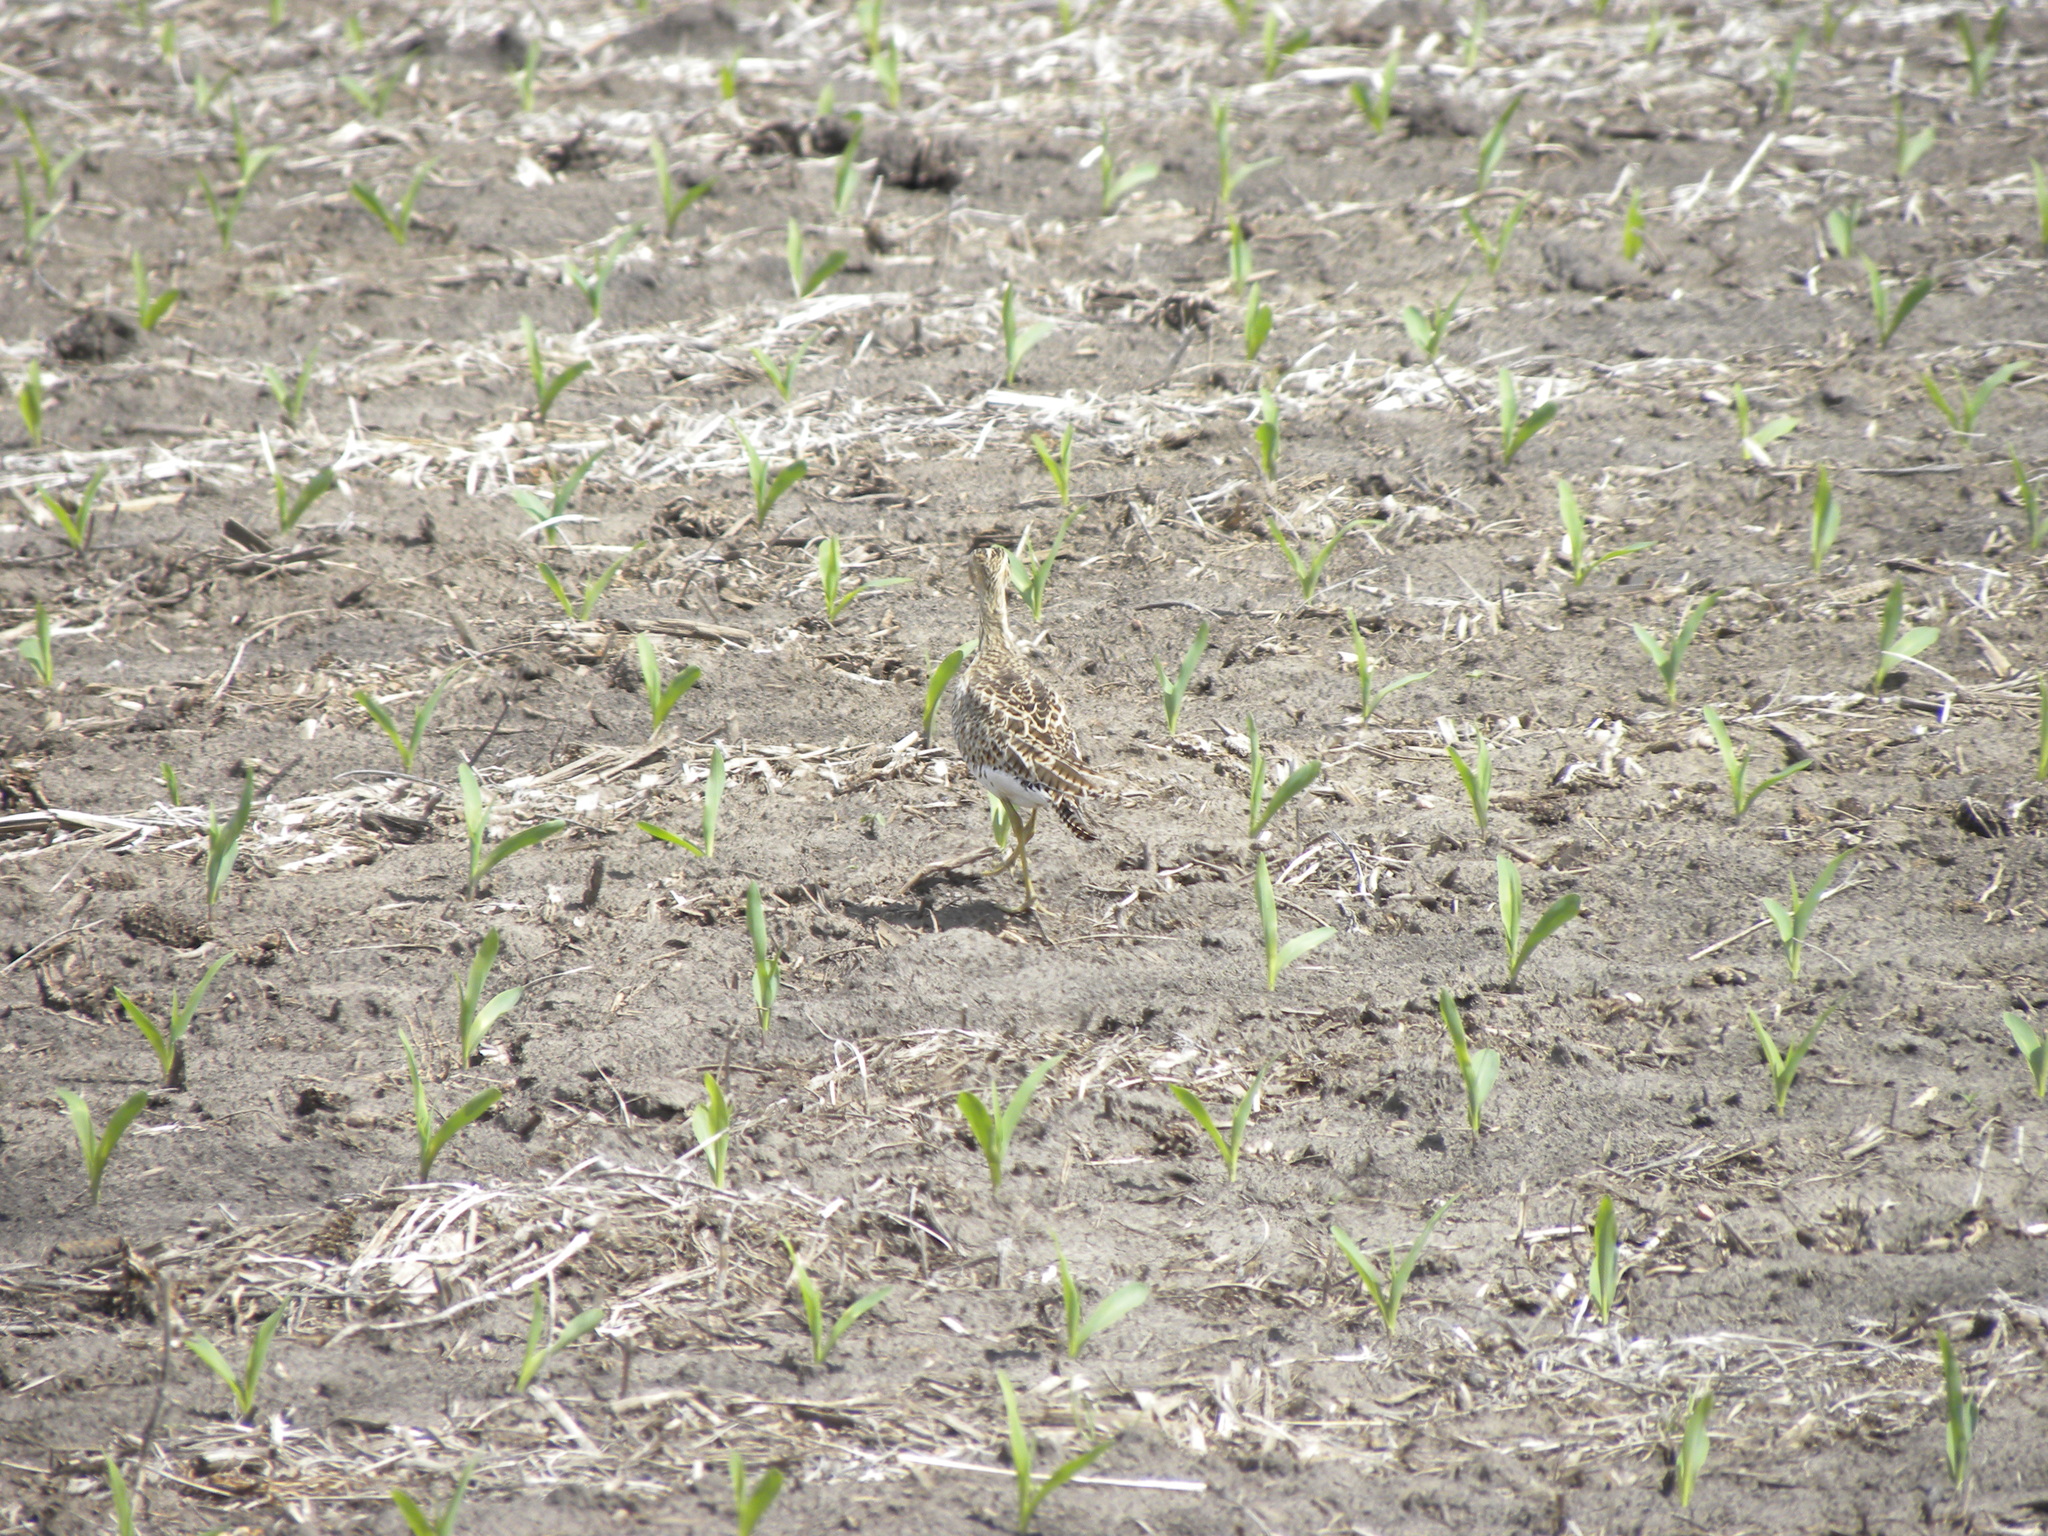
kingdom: Animalia
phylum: Chordata
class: Aves
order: Charadriiformes
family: Scolopacidae
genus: Bartramia
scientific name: Bartramia longicauda
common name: Upland sandpiper
